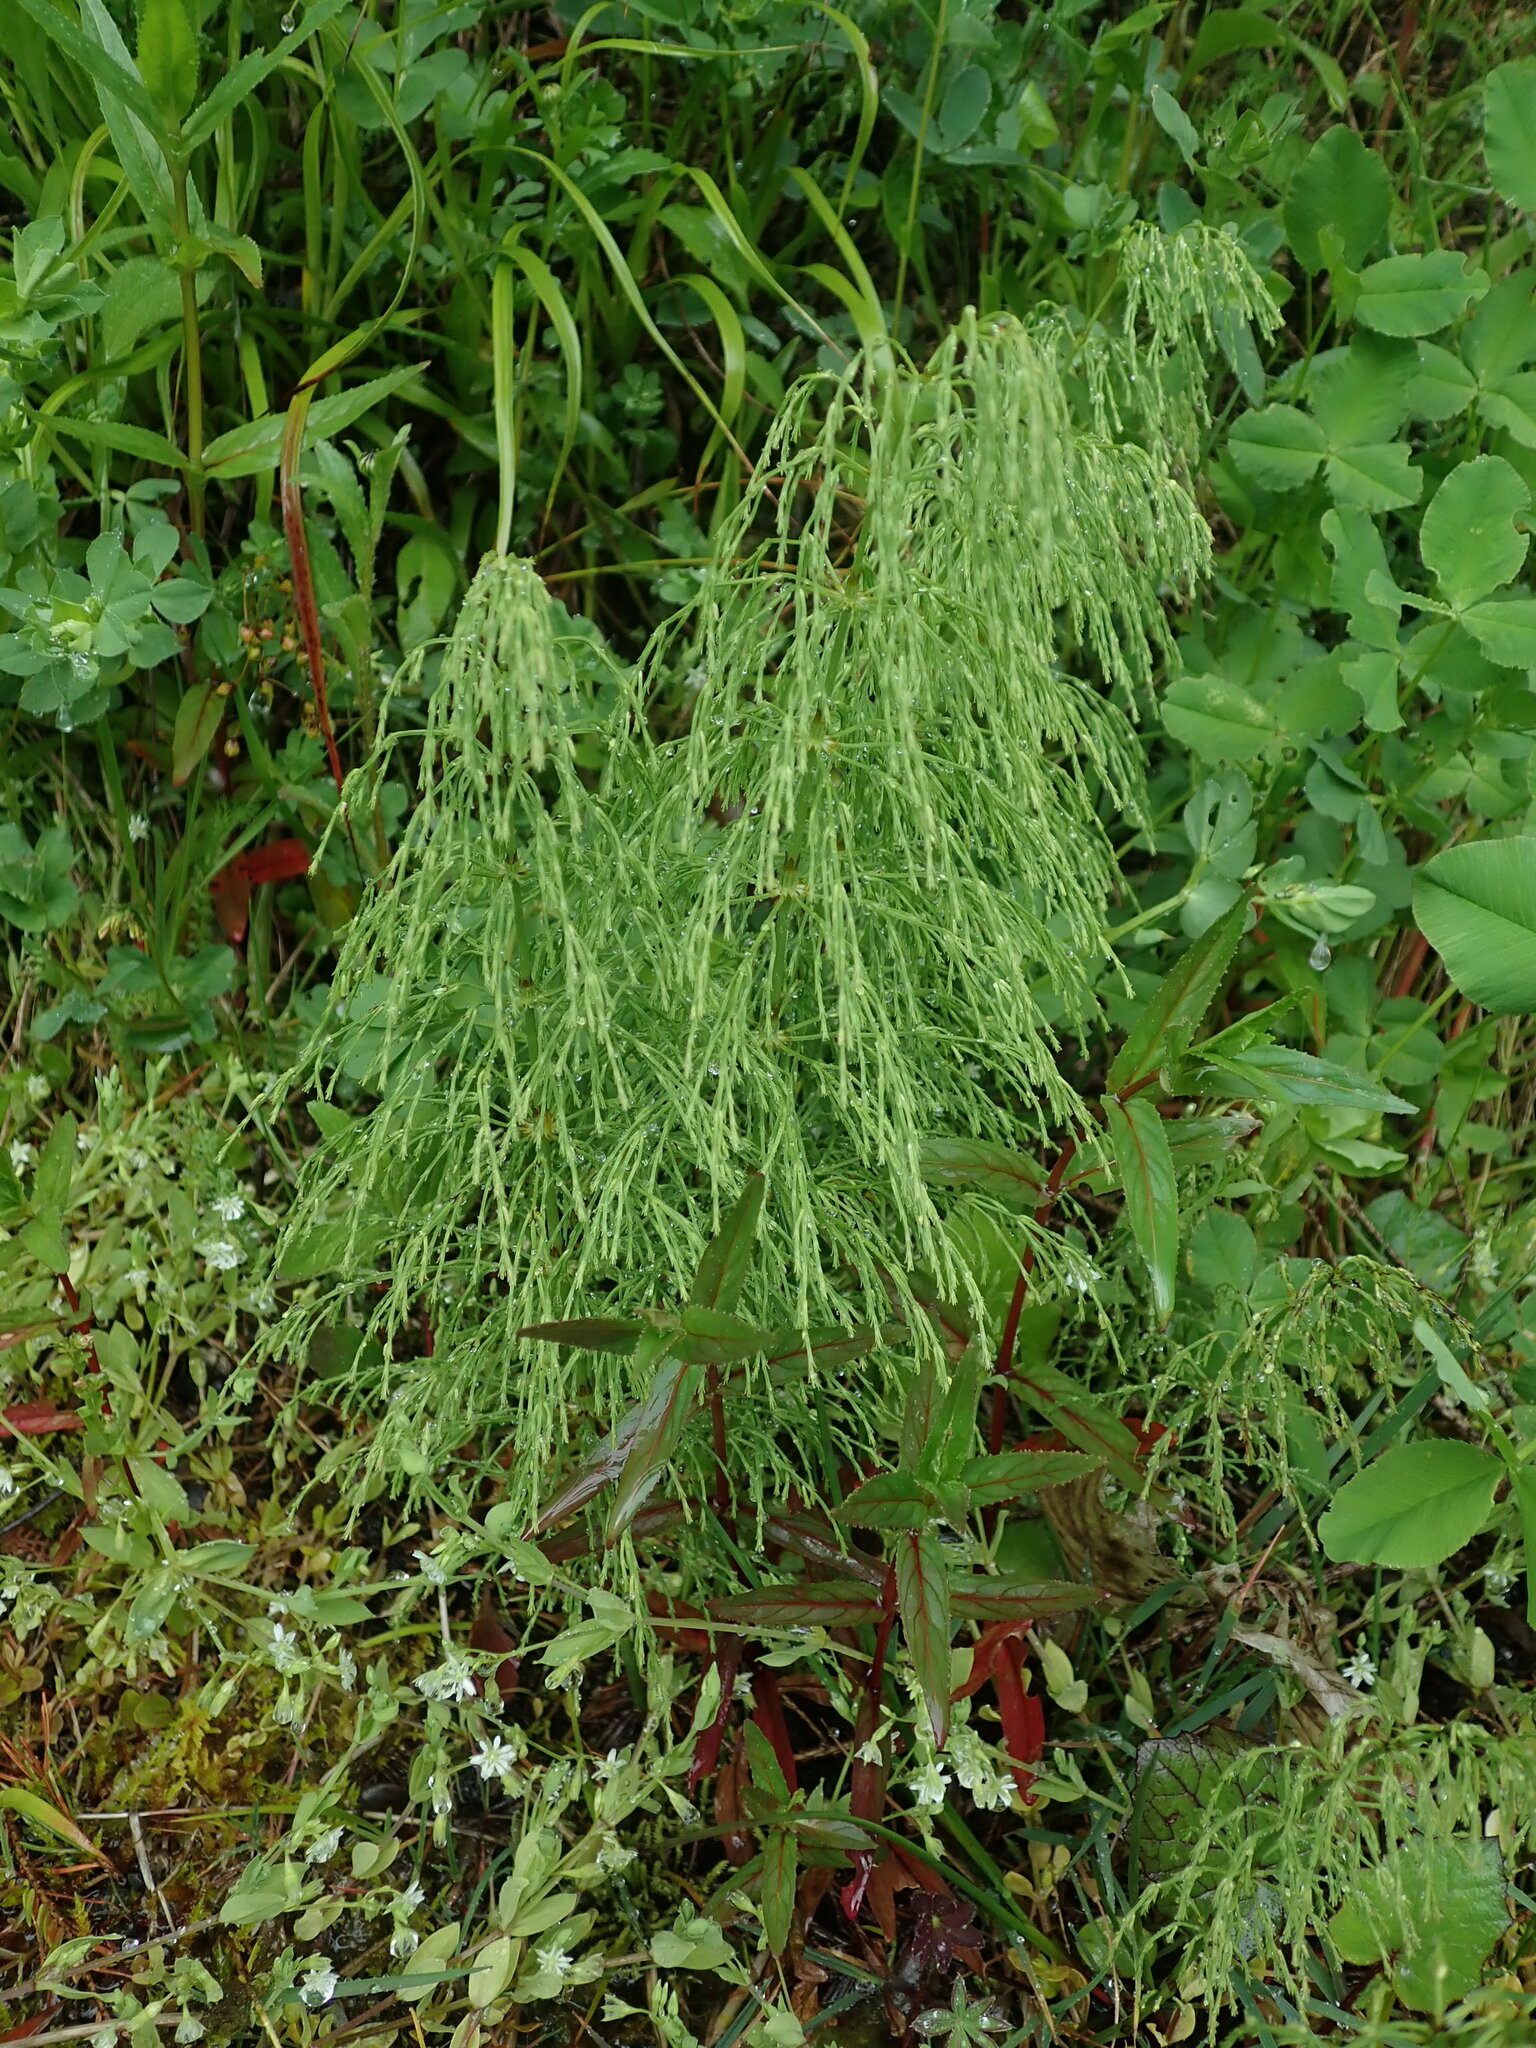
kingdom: Plantae
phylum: Tracheophyta
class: Polypodiopsida
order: Equisetales
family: Equisetaceae
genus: Equisetum
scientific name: Equisetum sylvaticum
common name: Wood horsetail
